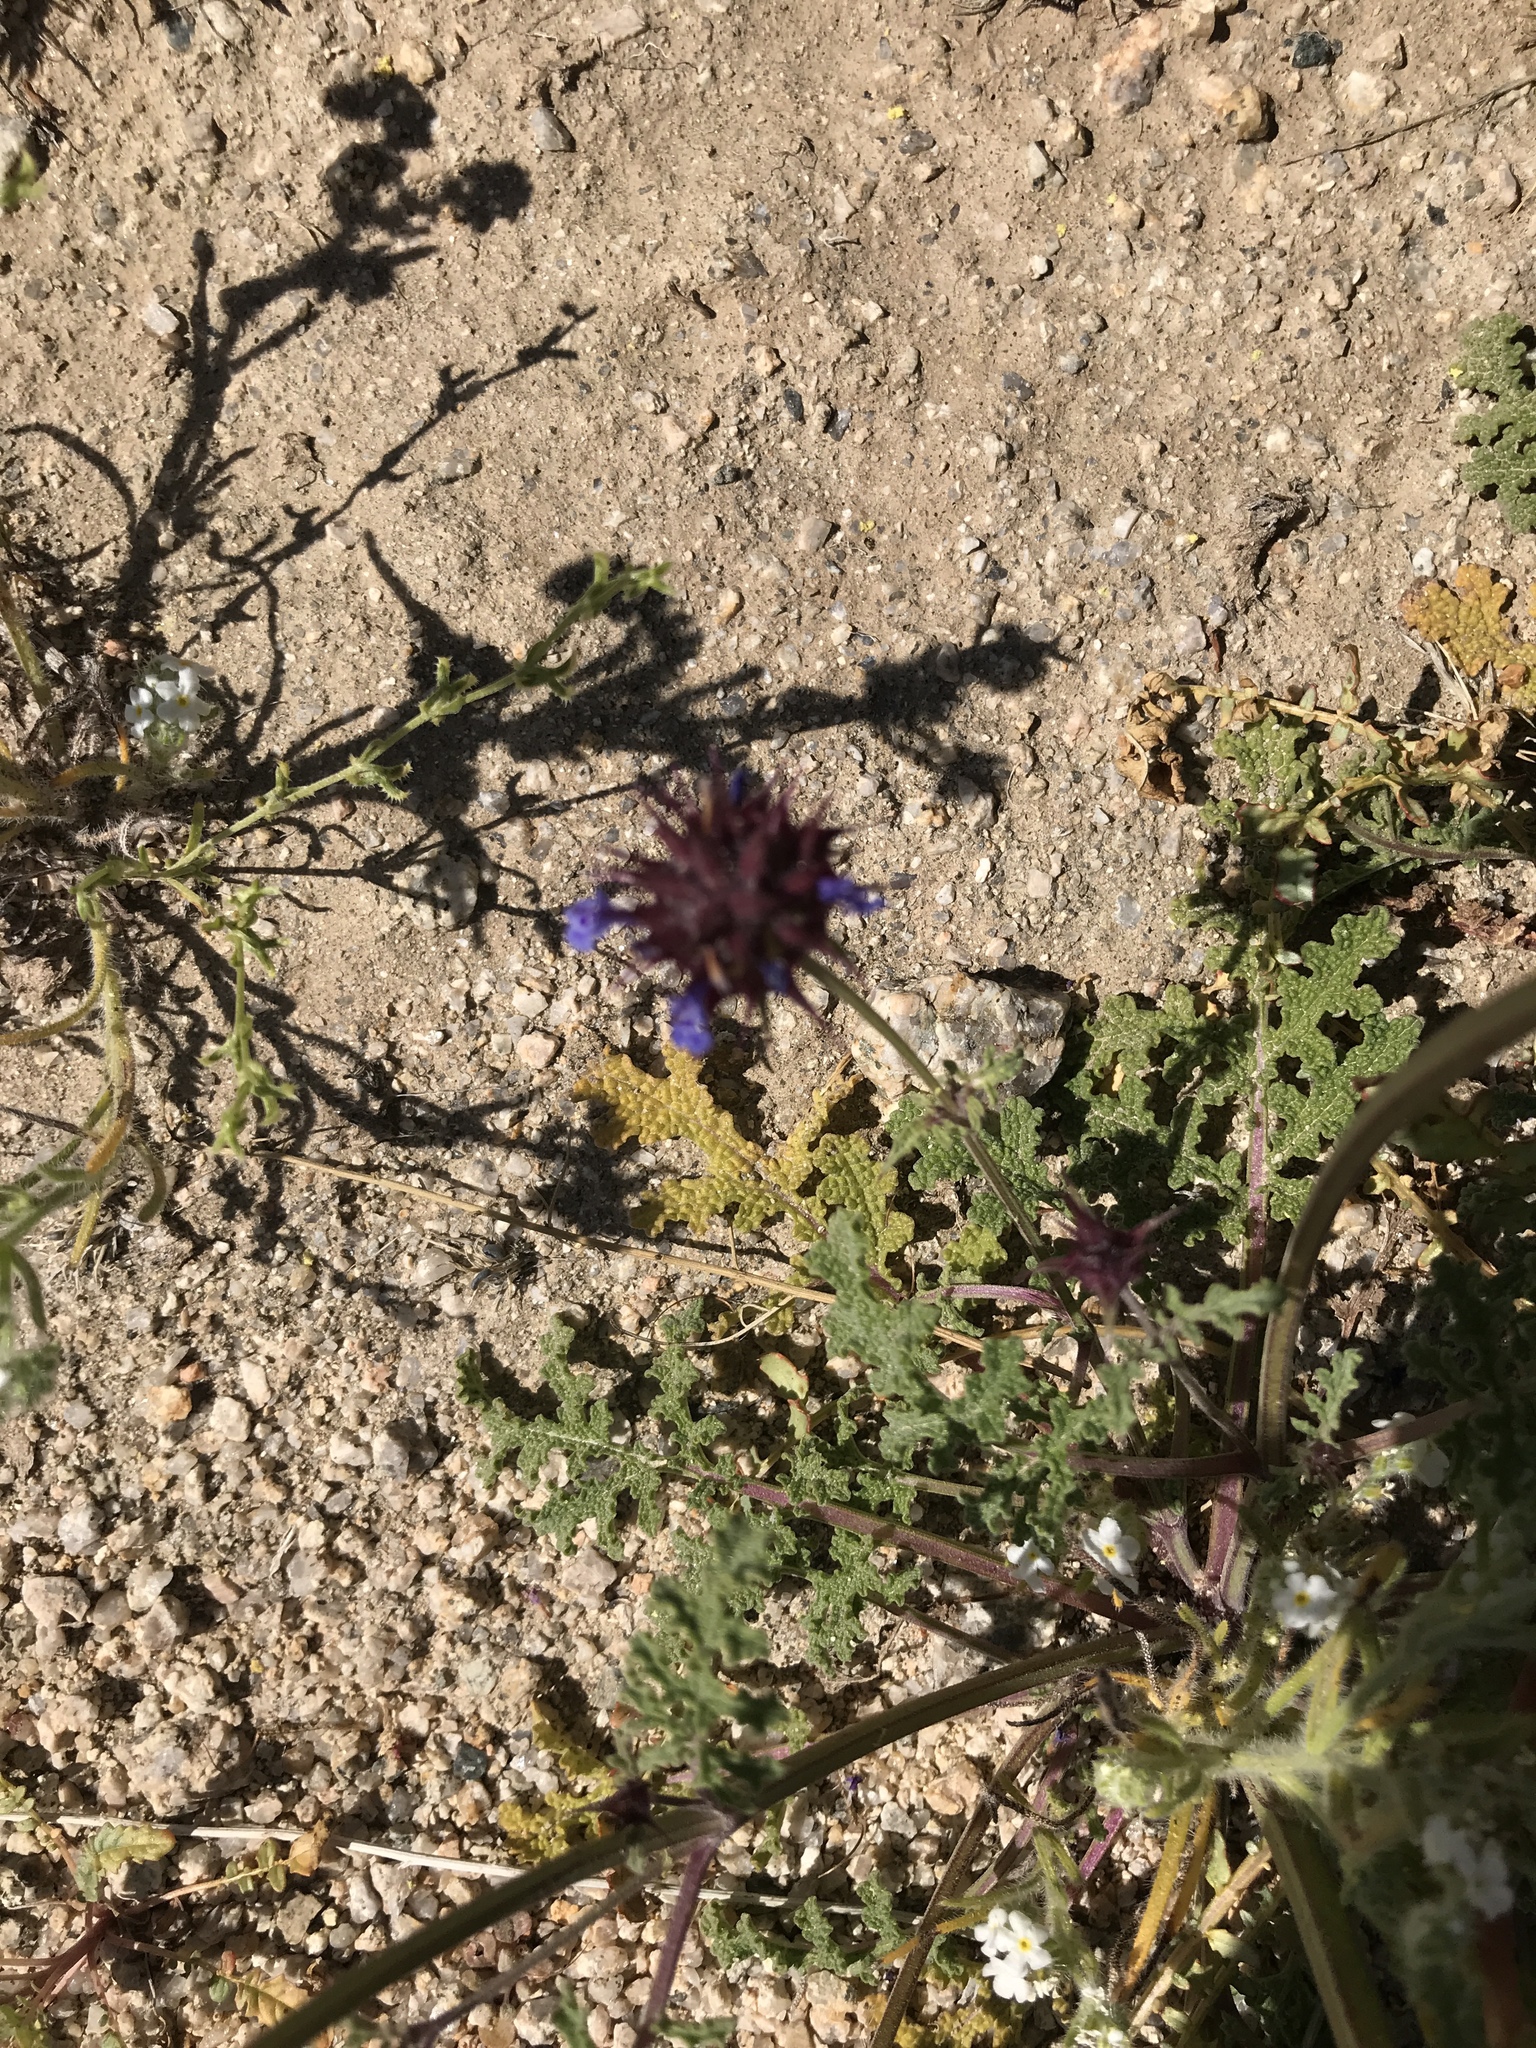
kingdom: Plantae
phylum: Tracheophyta
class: Magnoliopsida
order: Lamiales
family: Lamiaceae
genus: Salvia
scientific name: Salvia columbariae
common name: Chia
